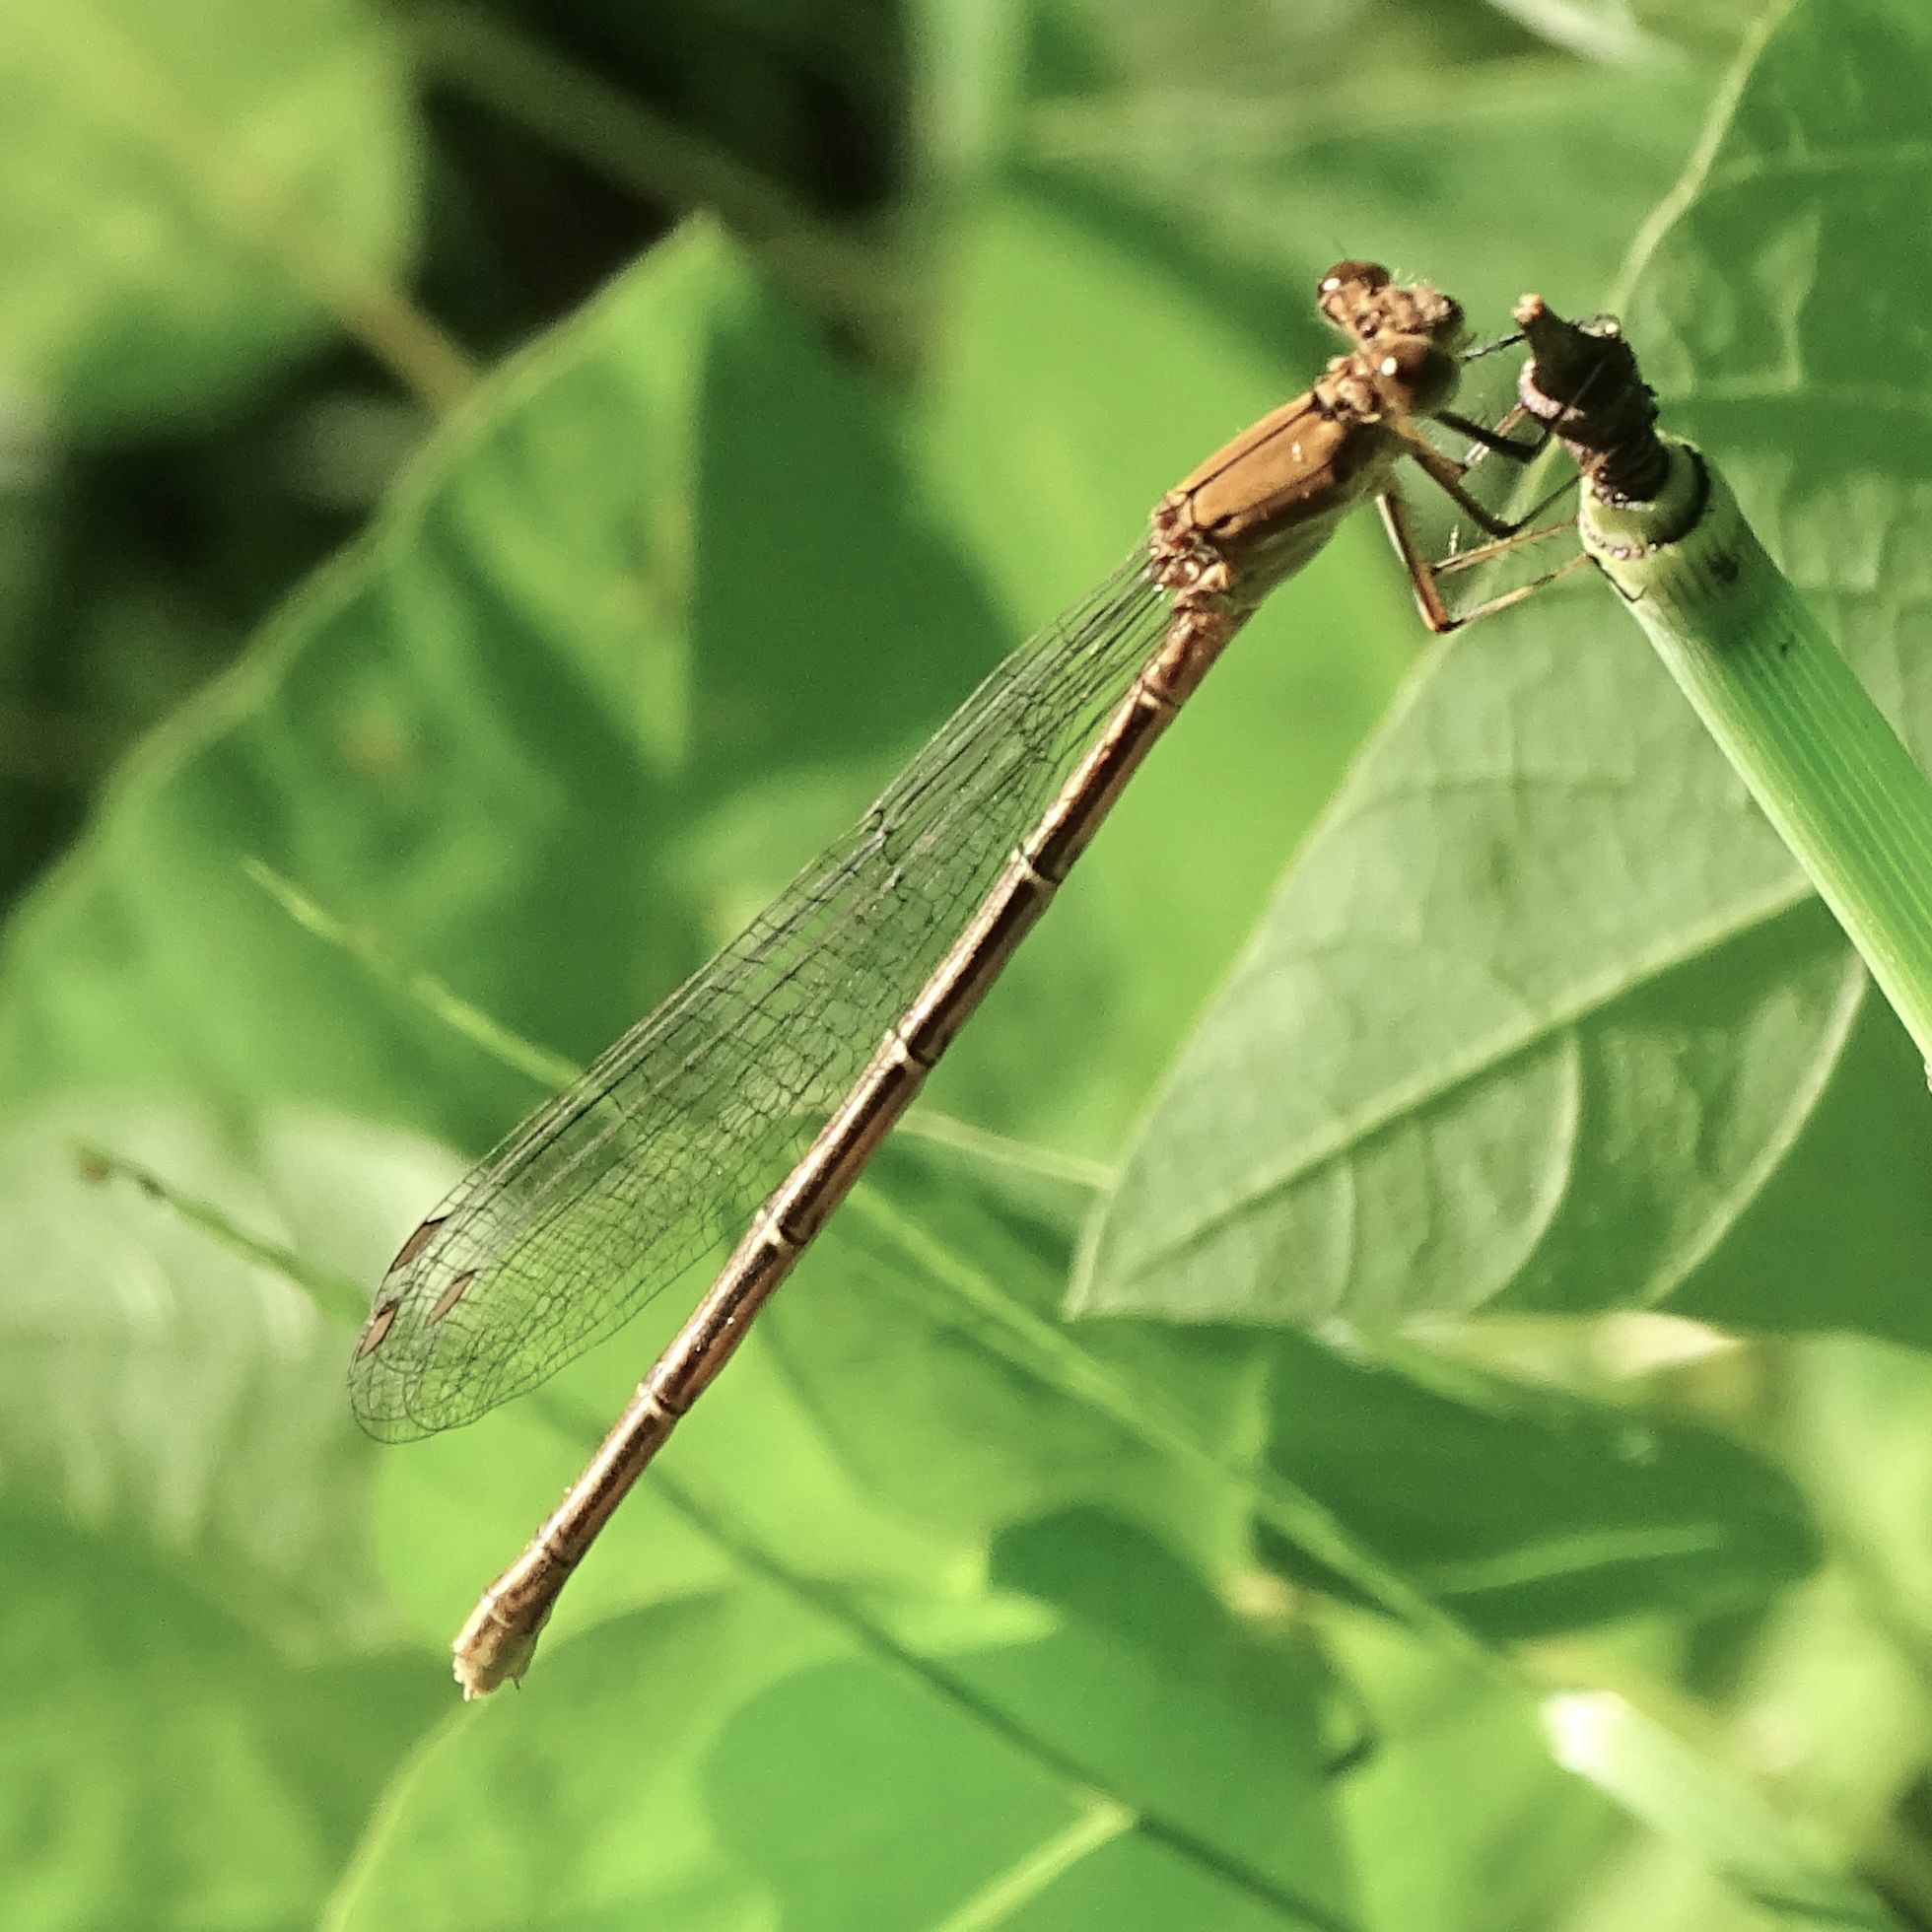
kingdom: Animalia
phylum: Arthropoda
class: Insecta
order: Odonata
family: Coenagrionidae
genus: Argia
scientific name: Argia moesta
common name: Powdered dancer
